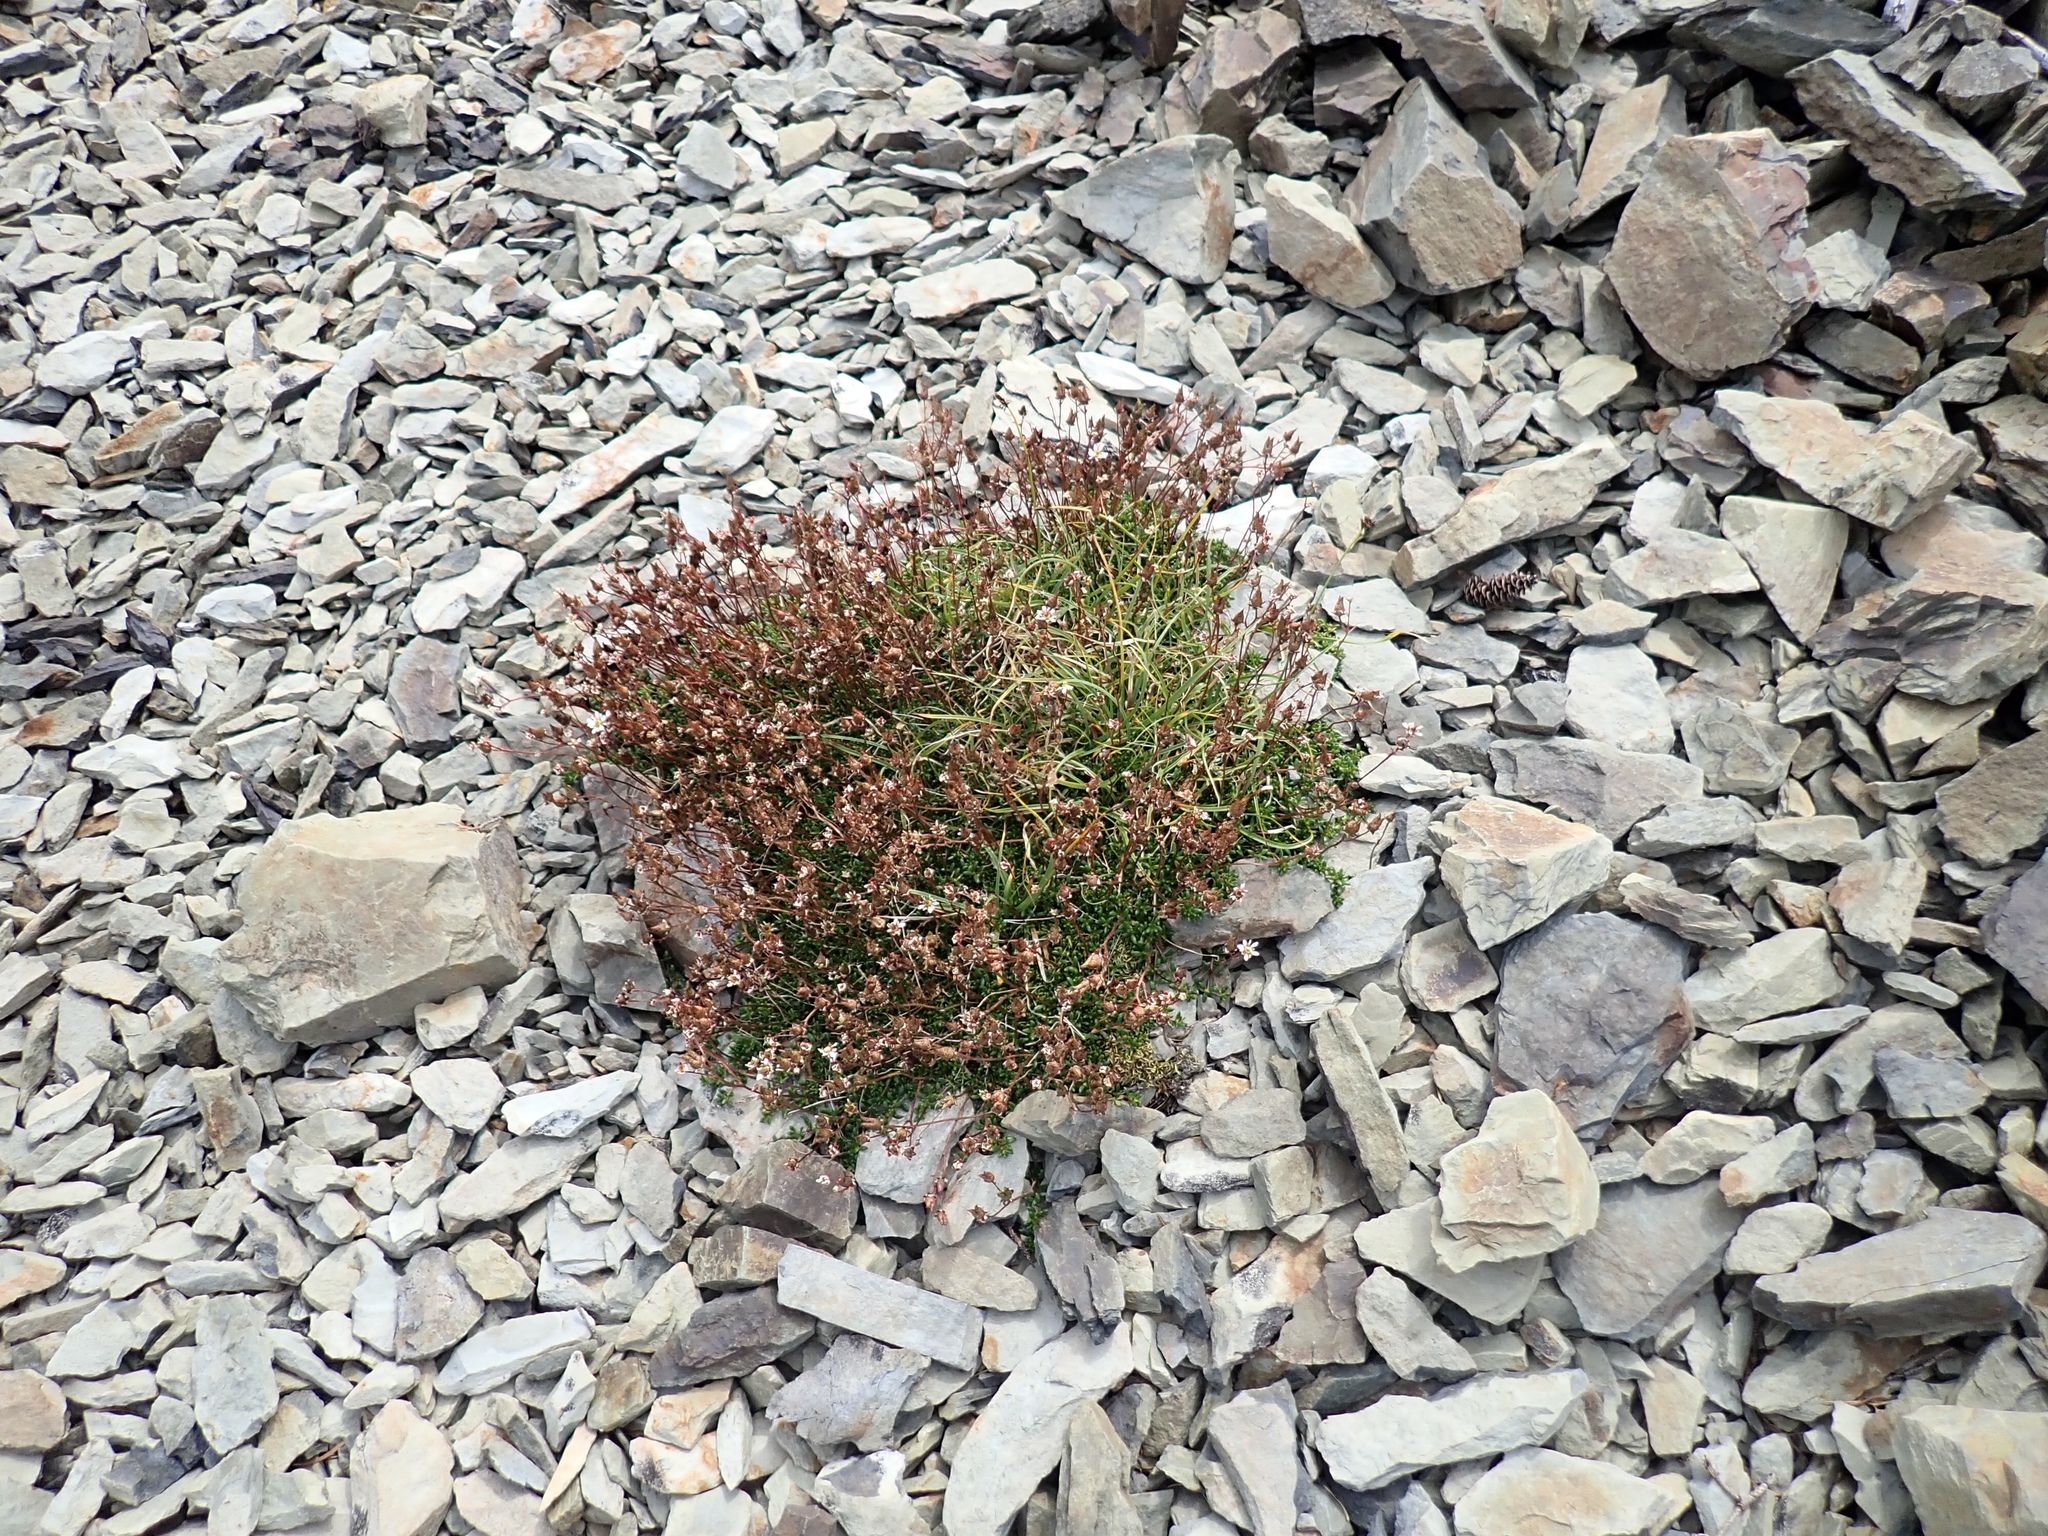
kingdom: Plantae
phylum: Tracheophyta
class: Magnoliopsida
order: Saxifragales
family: Saxifragaceae
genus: Micranthes
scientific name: Micranthes tolmiei
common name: Tolmie's saxifrage
